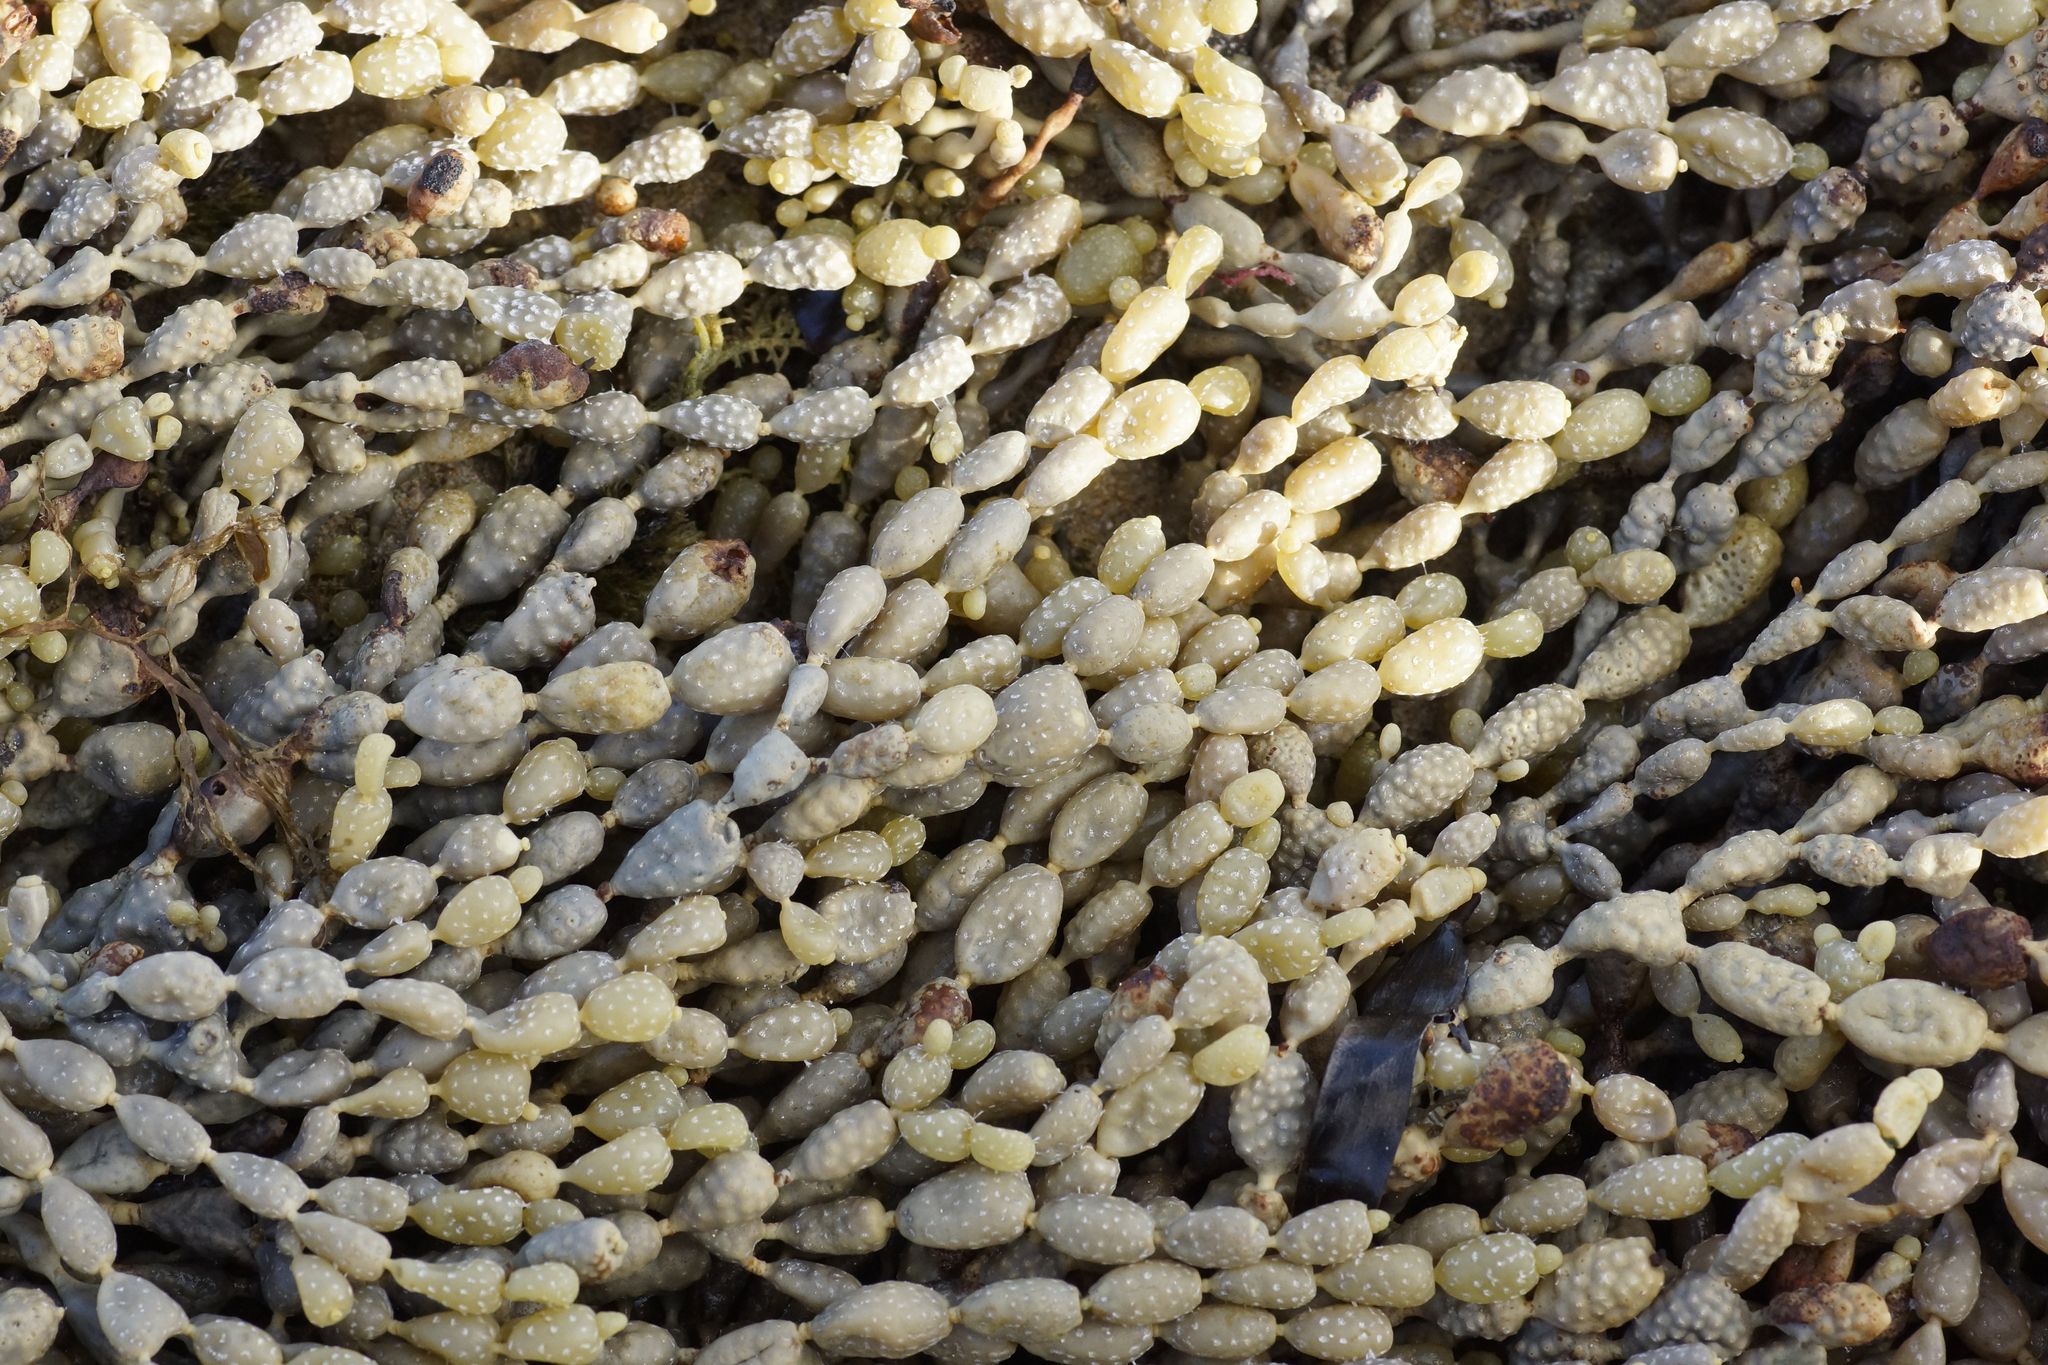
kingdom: Chromista
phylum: Ochrophyta
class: Phaeophyceae
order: Fucales
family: Hormosiraceae
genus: Hormosira
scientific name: Hormosira banksii
